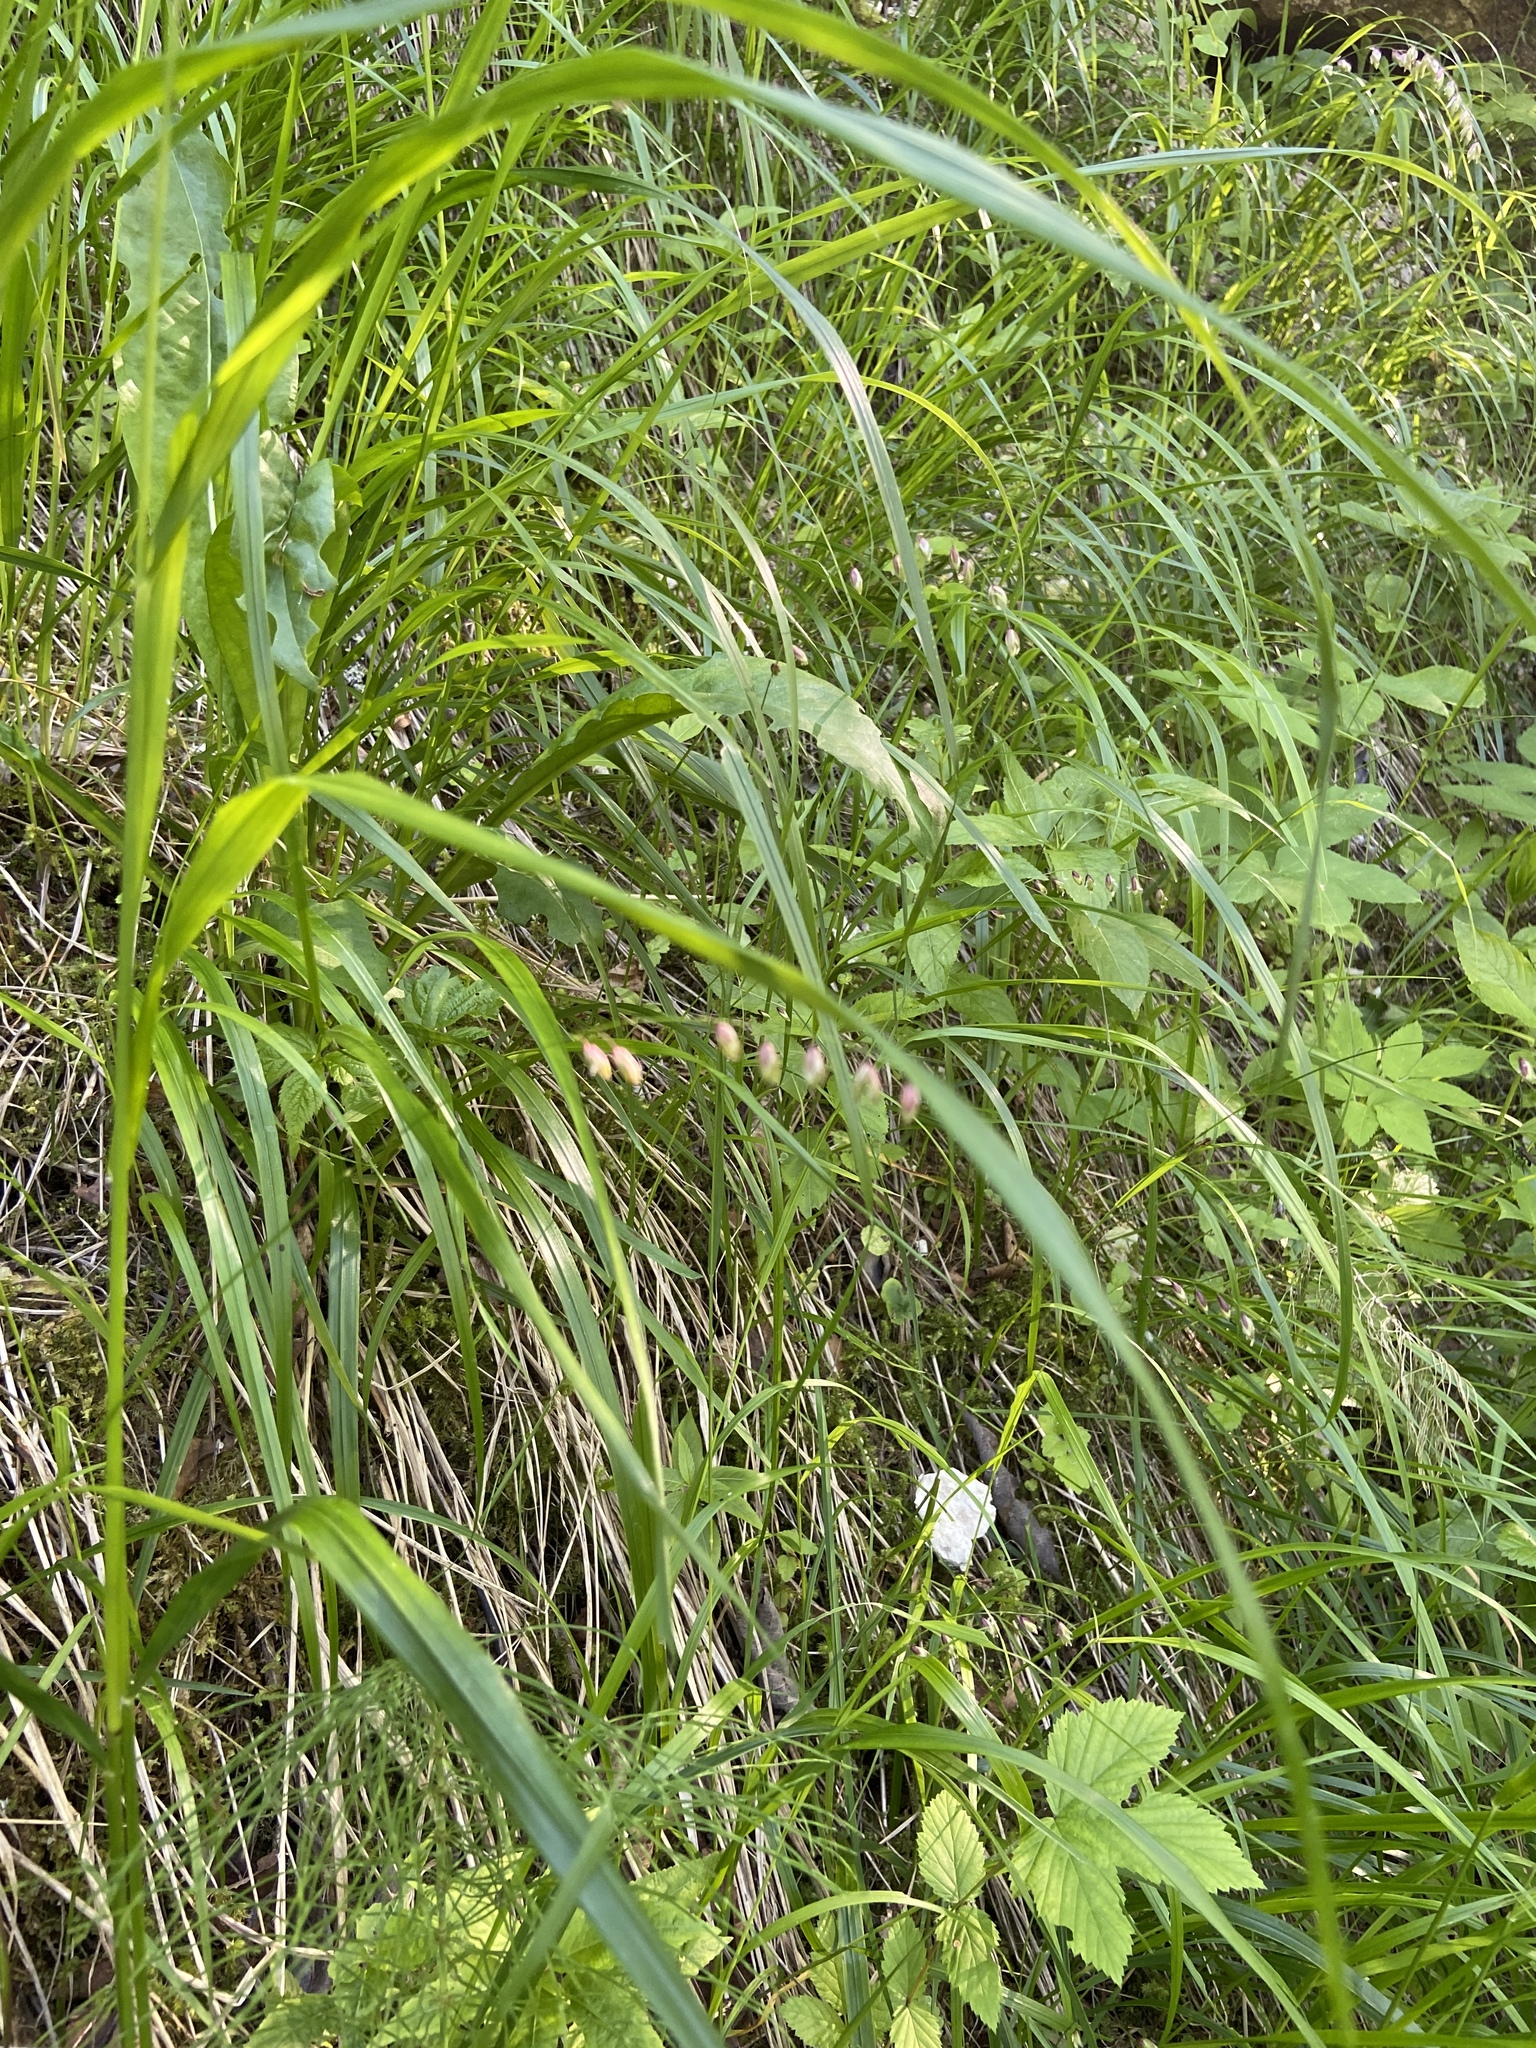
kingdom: Plantae
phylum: Tracheophyta
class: Liliopsida
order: Poales
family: Poaceae
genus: Melica
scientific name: Melica nutans
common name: Mountain melick
